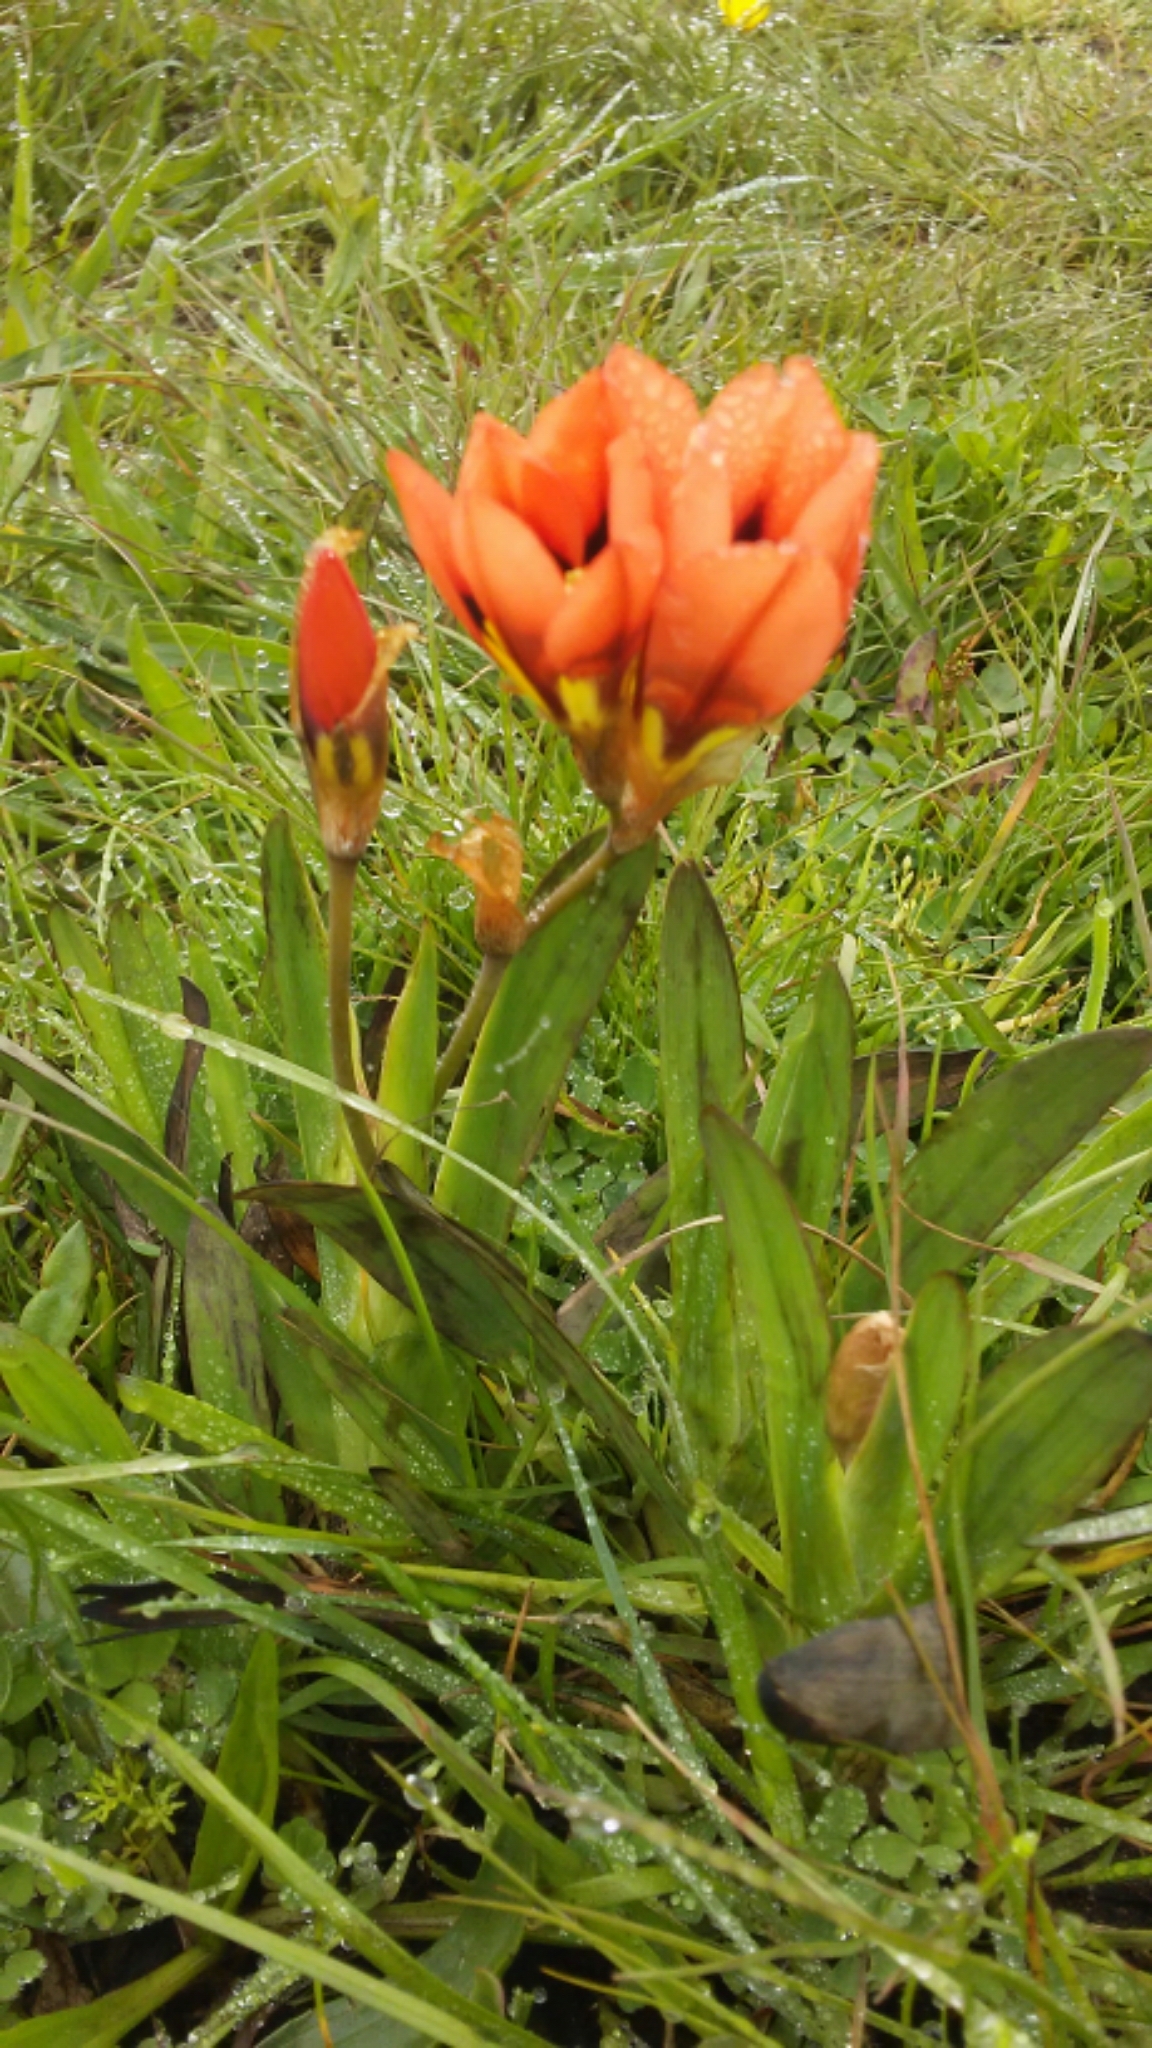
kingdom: Plantae
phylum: Tracheophyta
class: Liliopsida
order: Asparagales
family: Iridaceae
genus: Sparaxis
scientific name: Sparaxis tricolor
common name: Wandflower
